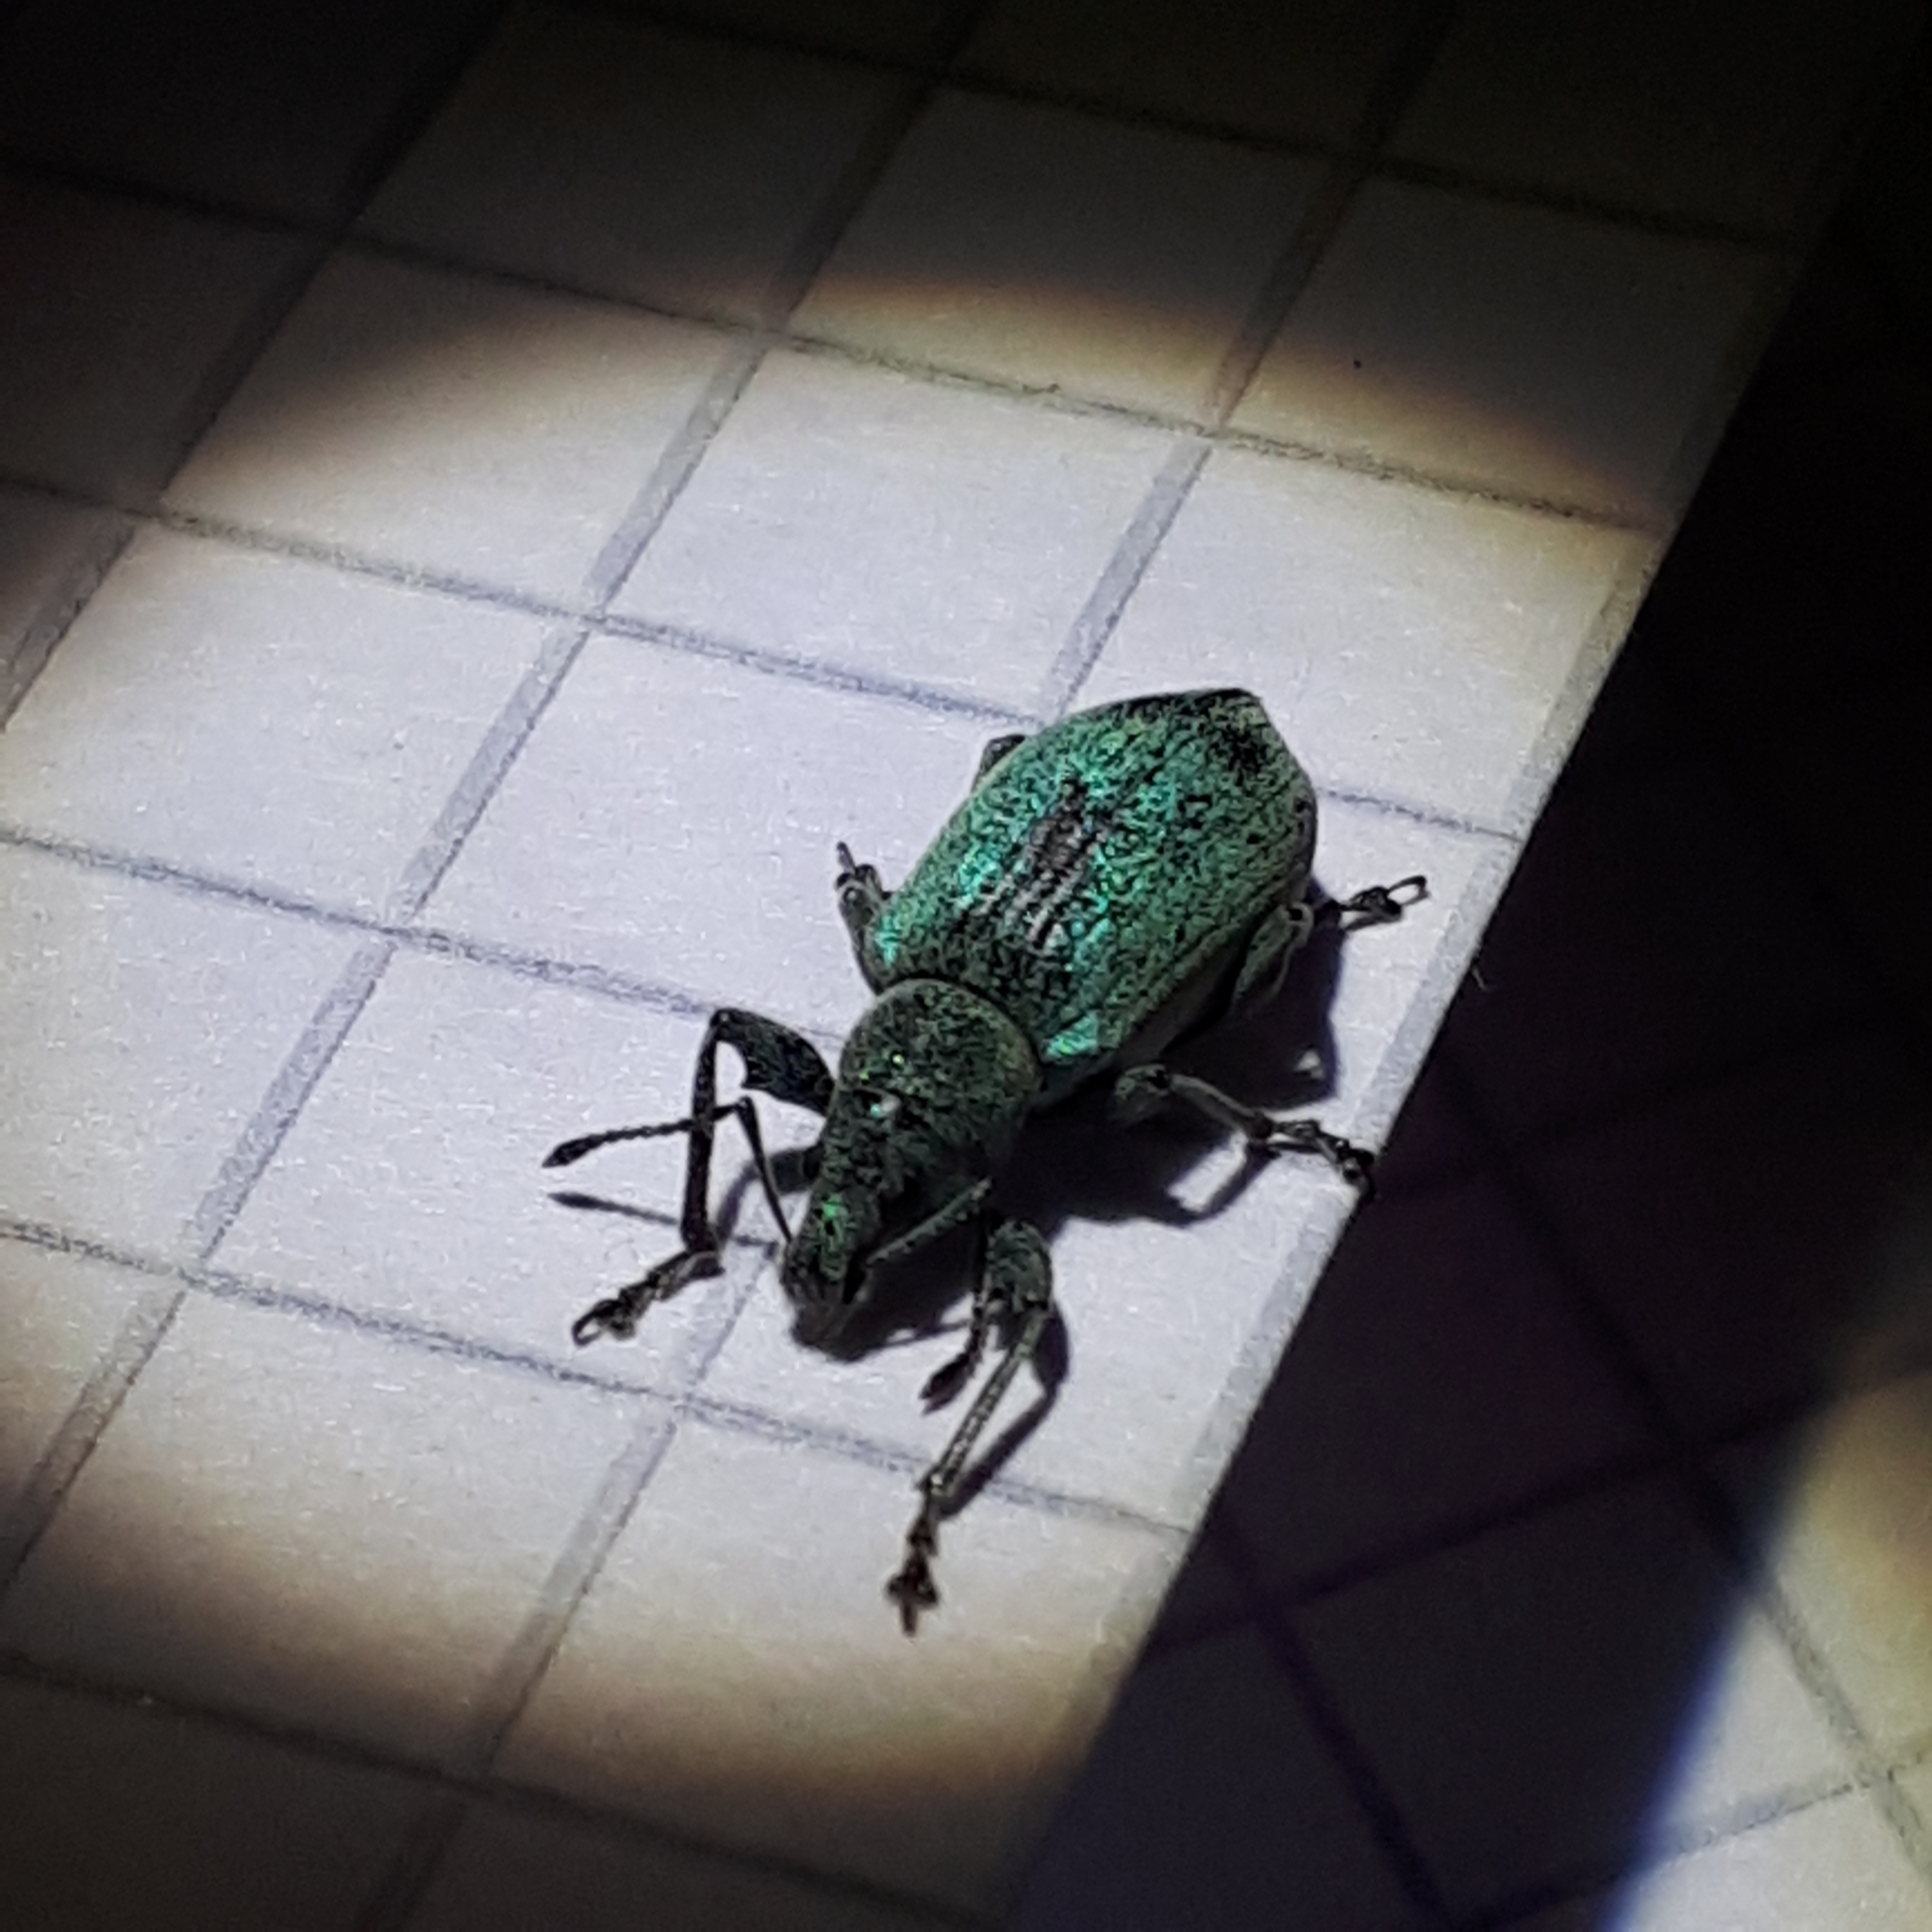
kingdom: Animalia
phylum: Arthropoda
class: Insecta
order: Coleoptera
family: Curculionidae
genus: Phyllobius
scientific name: Phyllobius pomaceus
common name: Green nettle weevil
